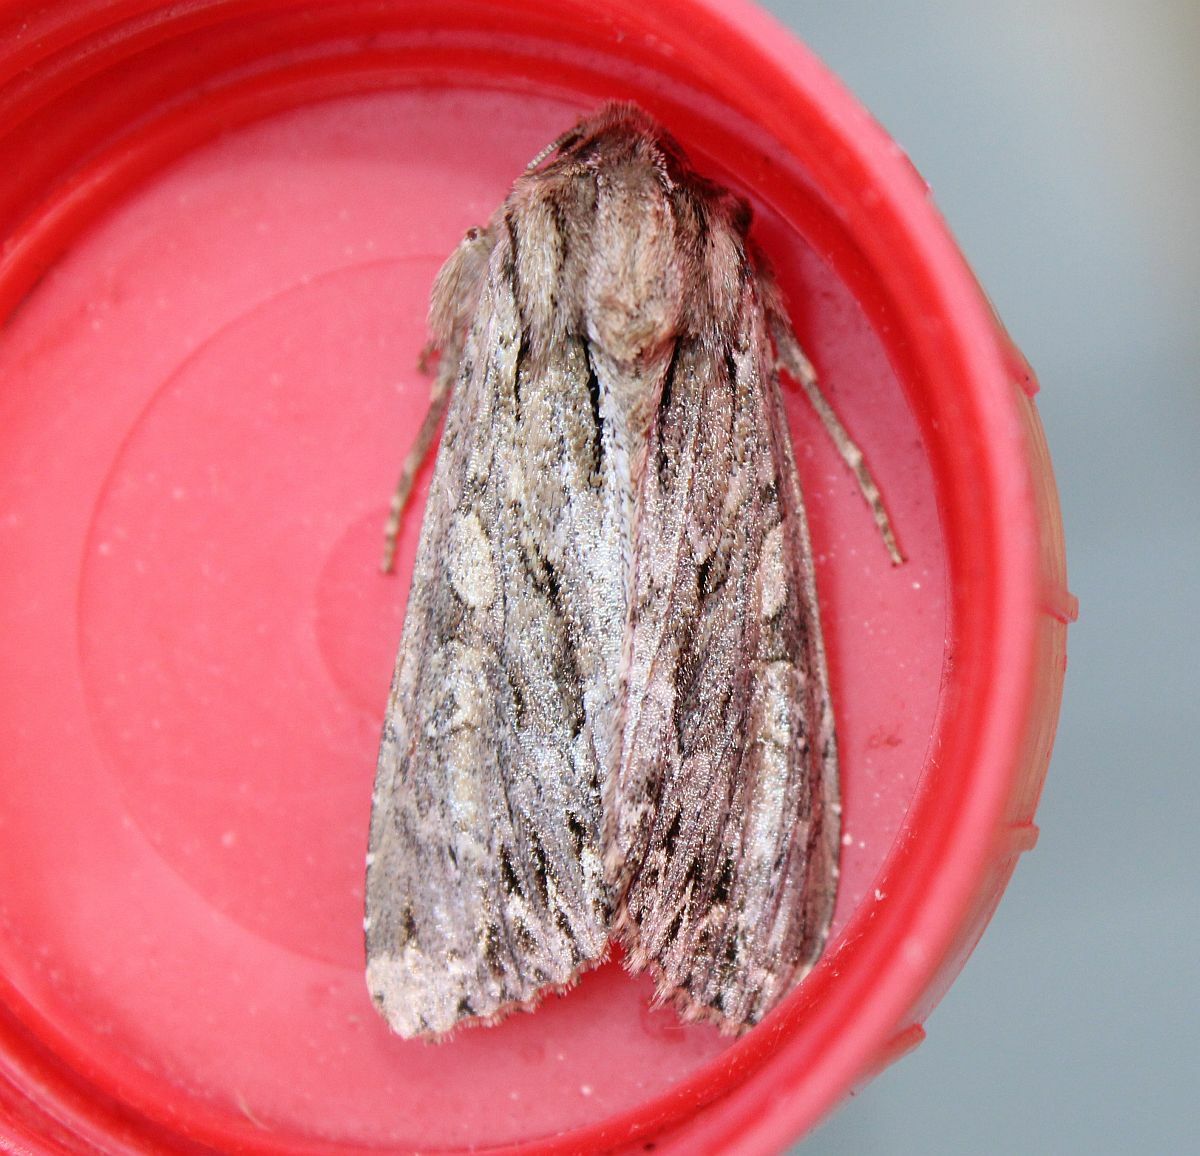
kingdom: Animalia
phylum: Arthropoda
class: Insecta
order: Lepidoptera
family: Noctuidae
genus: Apamea
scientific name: Apamea monoglypha
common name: Dark arches
